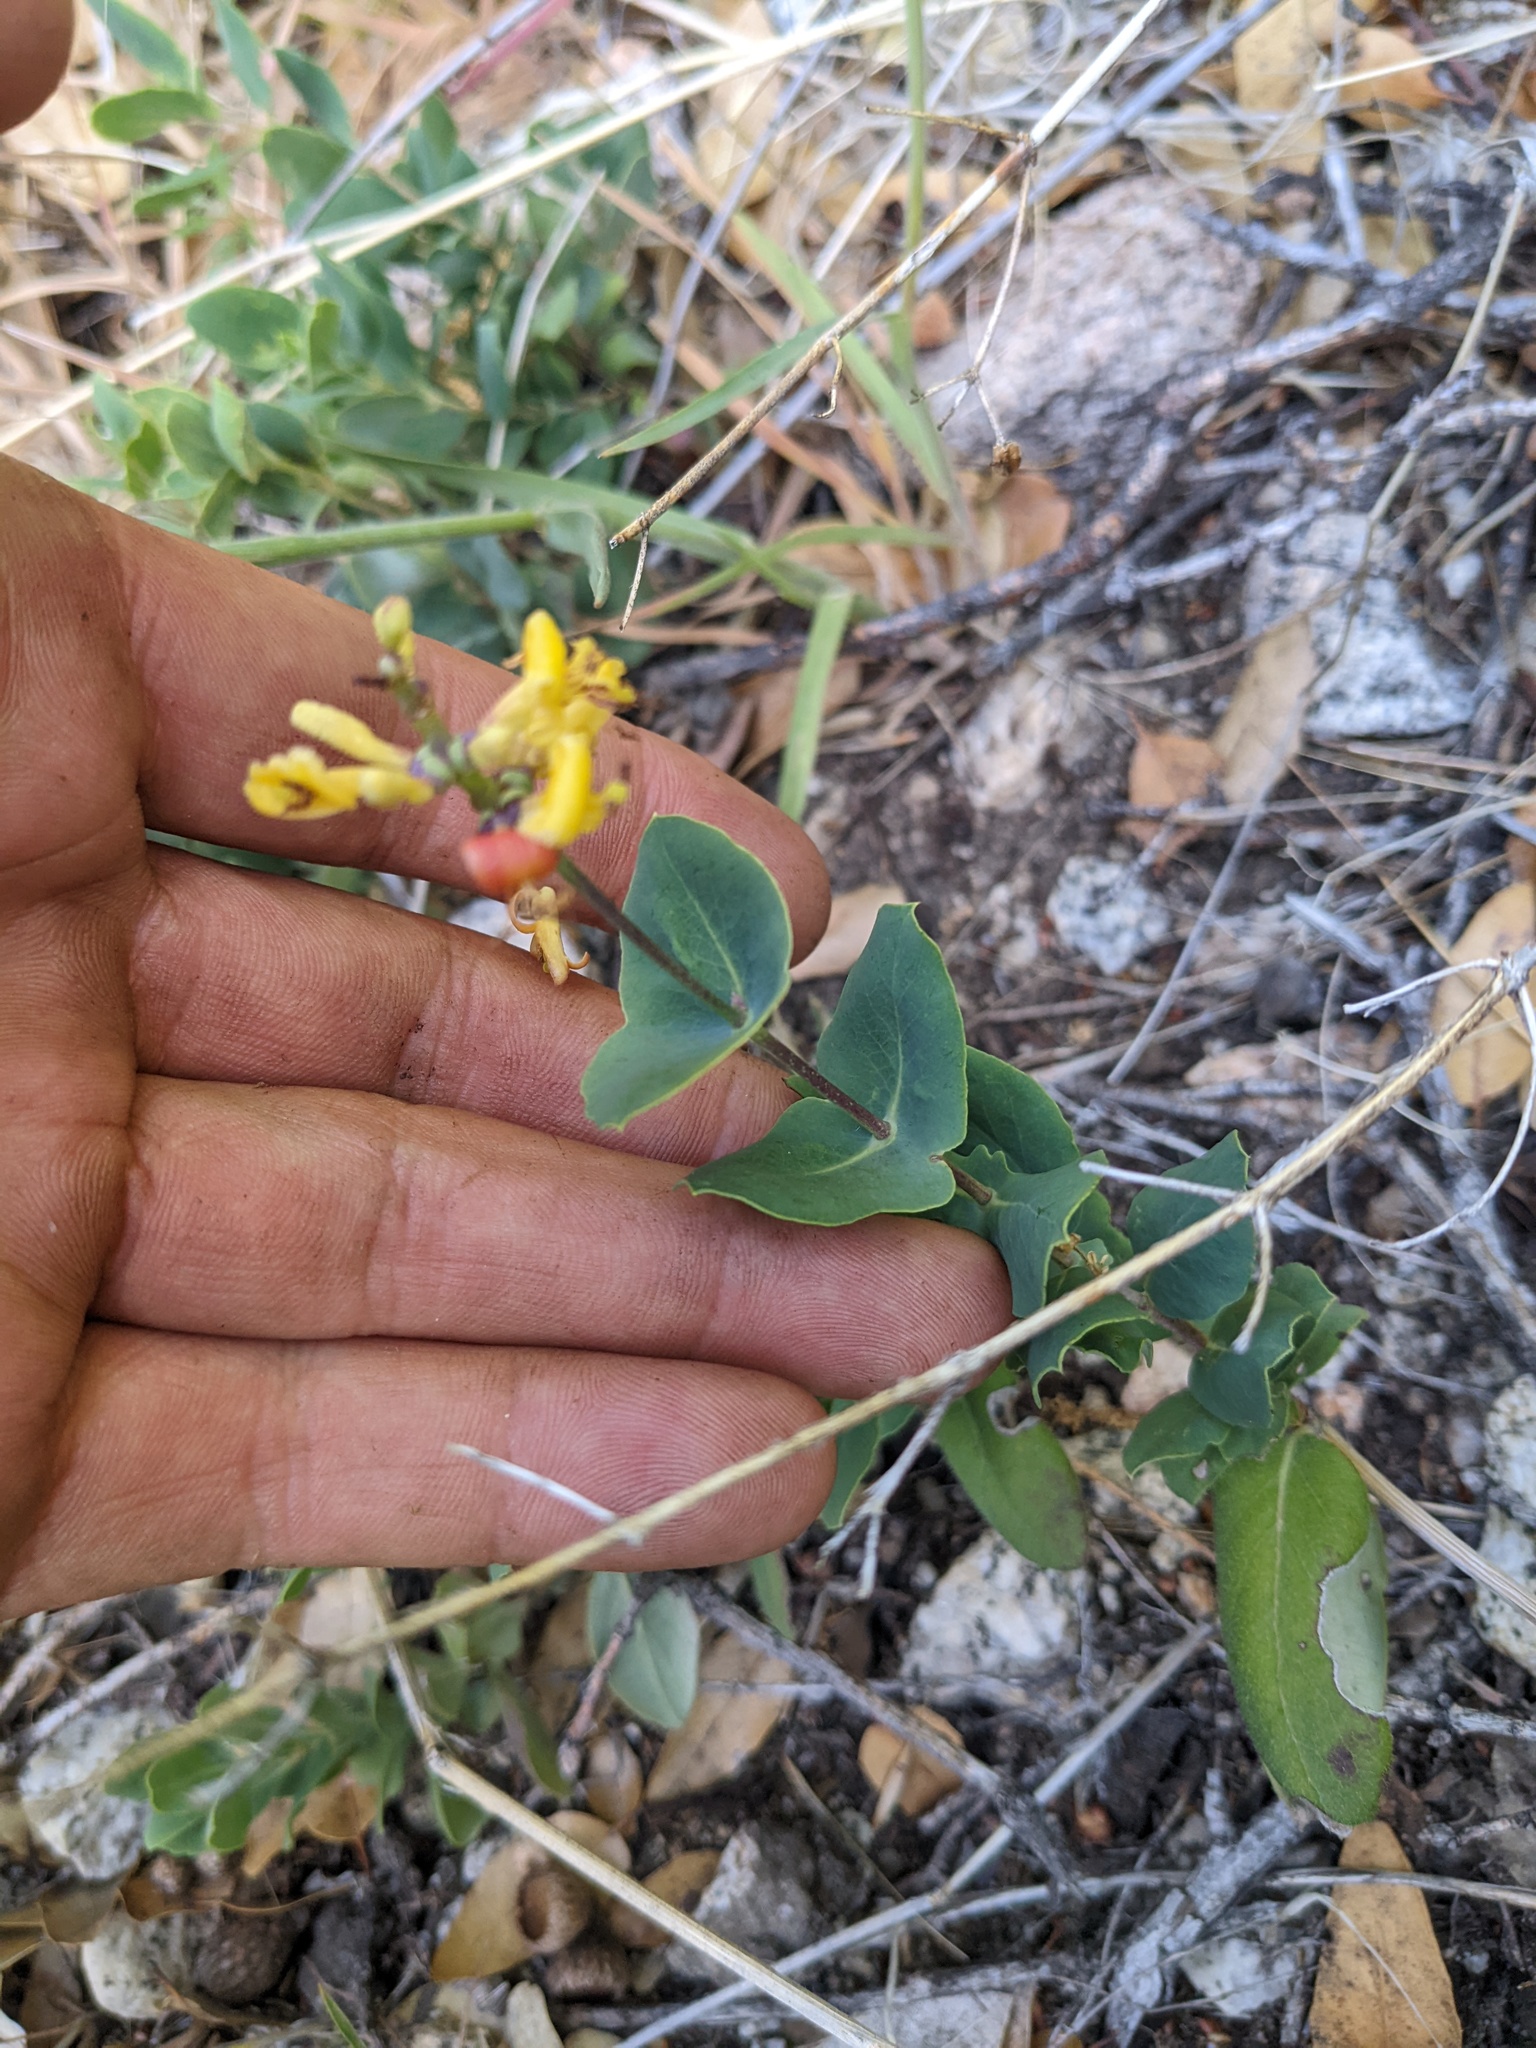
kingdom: Plantae
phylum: Tracheophyta
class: Magnoliopsida
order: Dipsacales
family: Caprifoliaceae
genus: Lonicera
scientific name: Lonicera interrupta
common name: Chaparral honeysuckle
